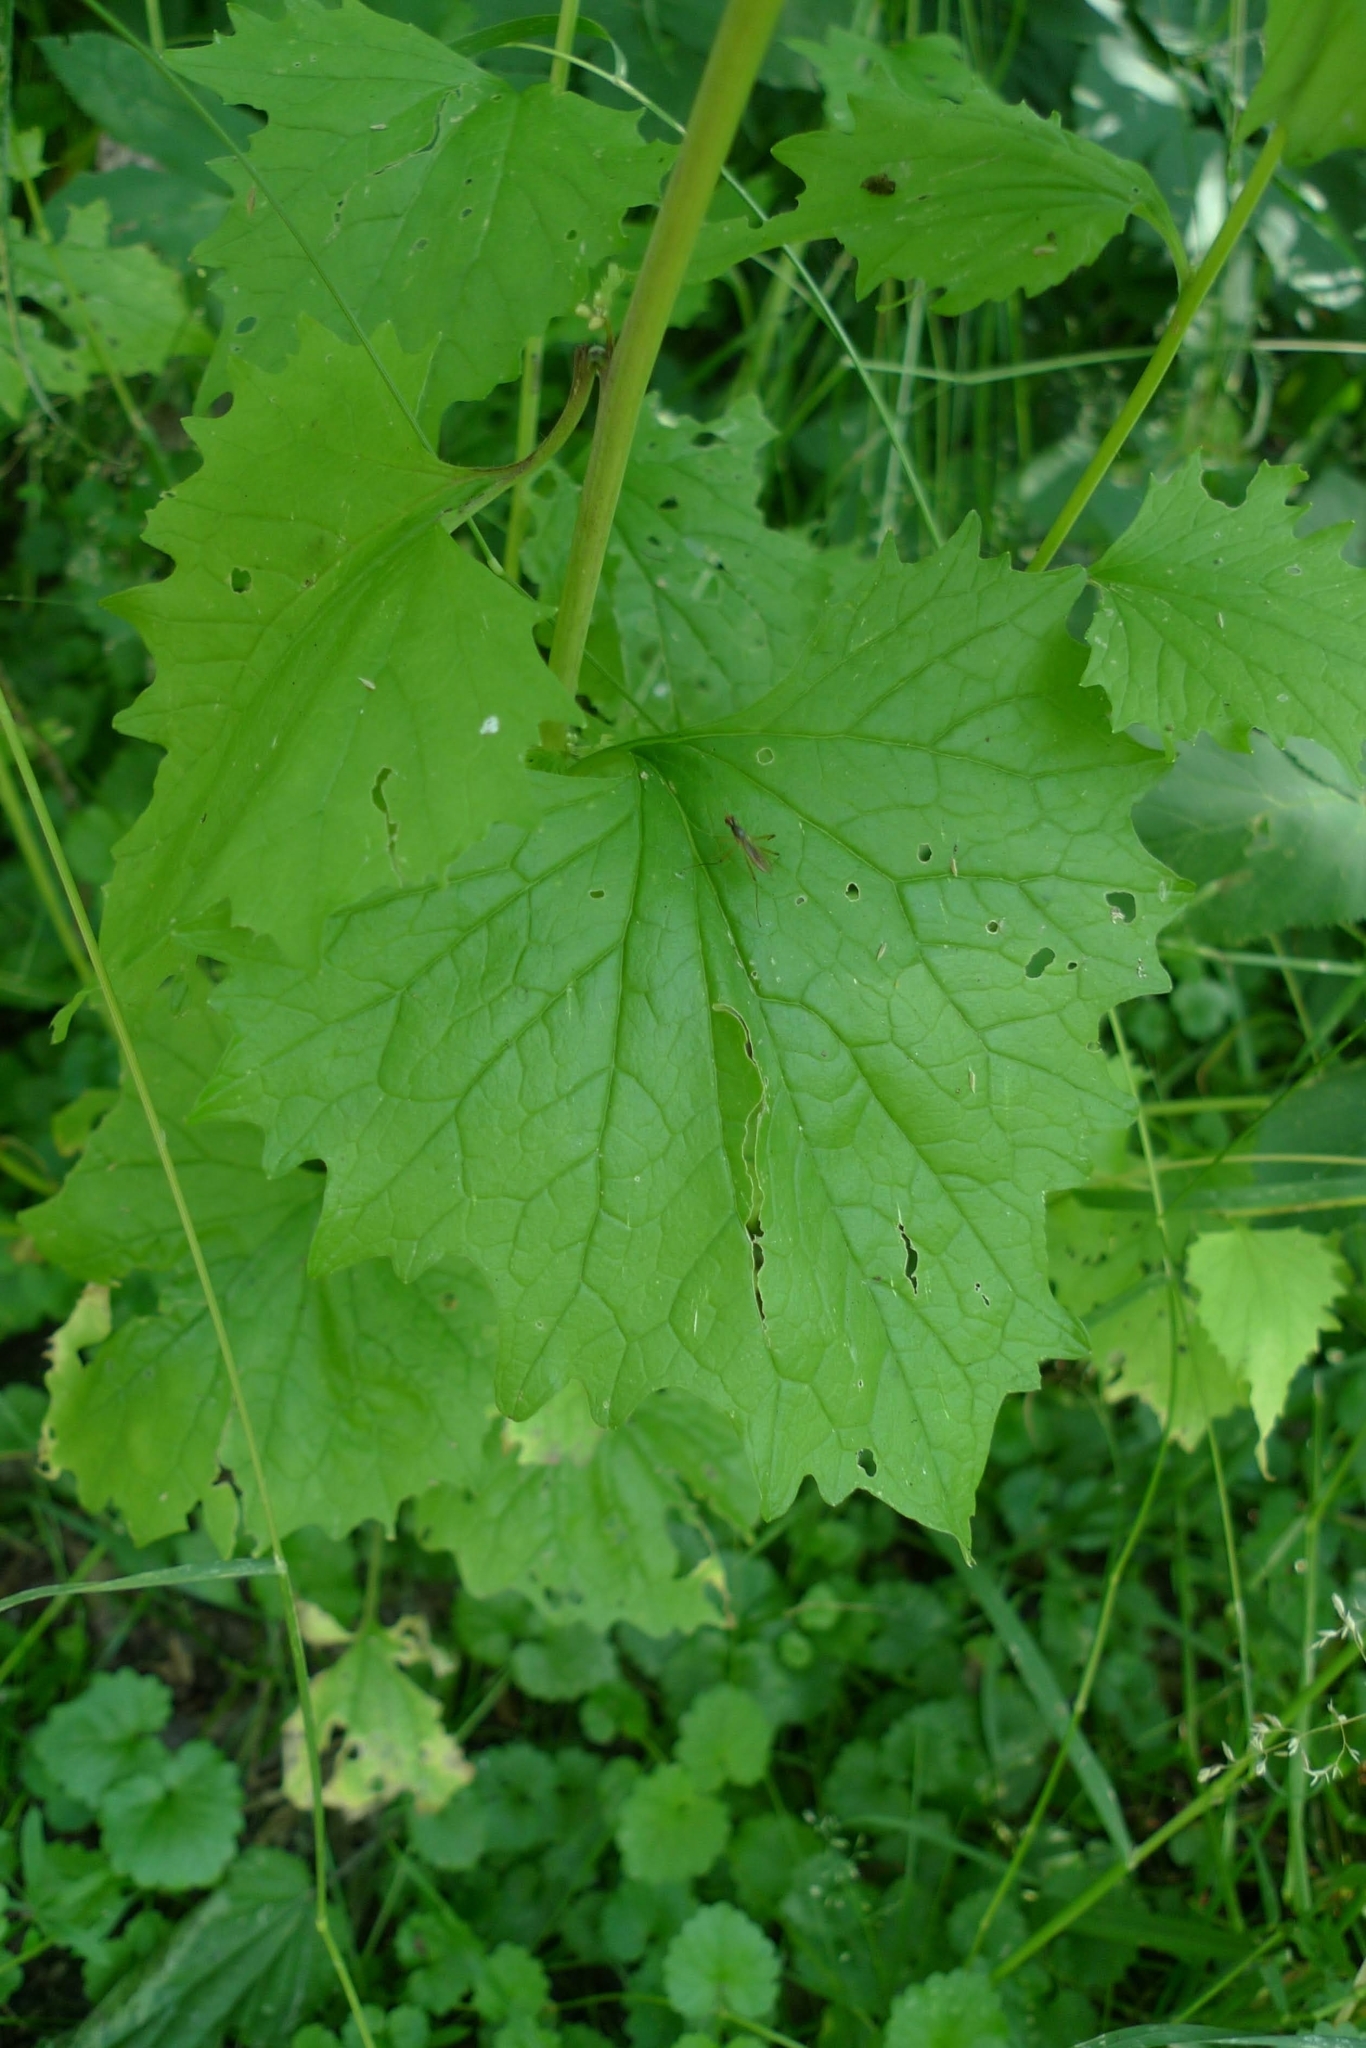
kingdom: Plantae
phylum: Tracheophyta
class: Magnoliopsida
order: Brassicales
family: Brassicaceae
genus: Alliaria
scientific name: Alliaria petiolata
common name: Garlic mustard
